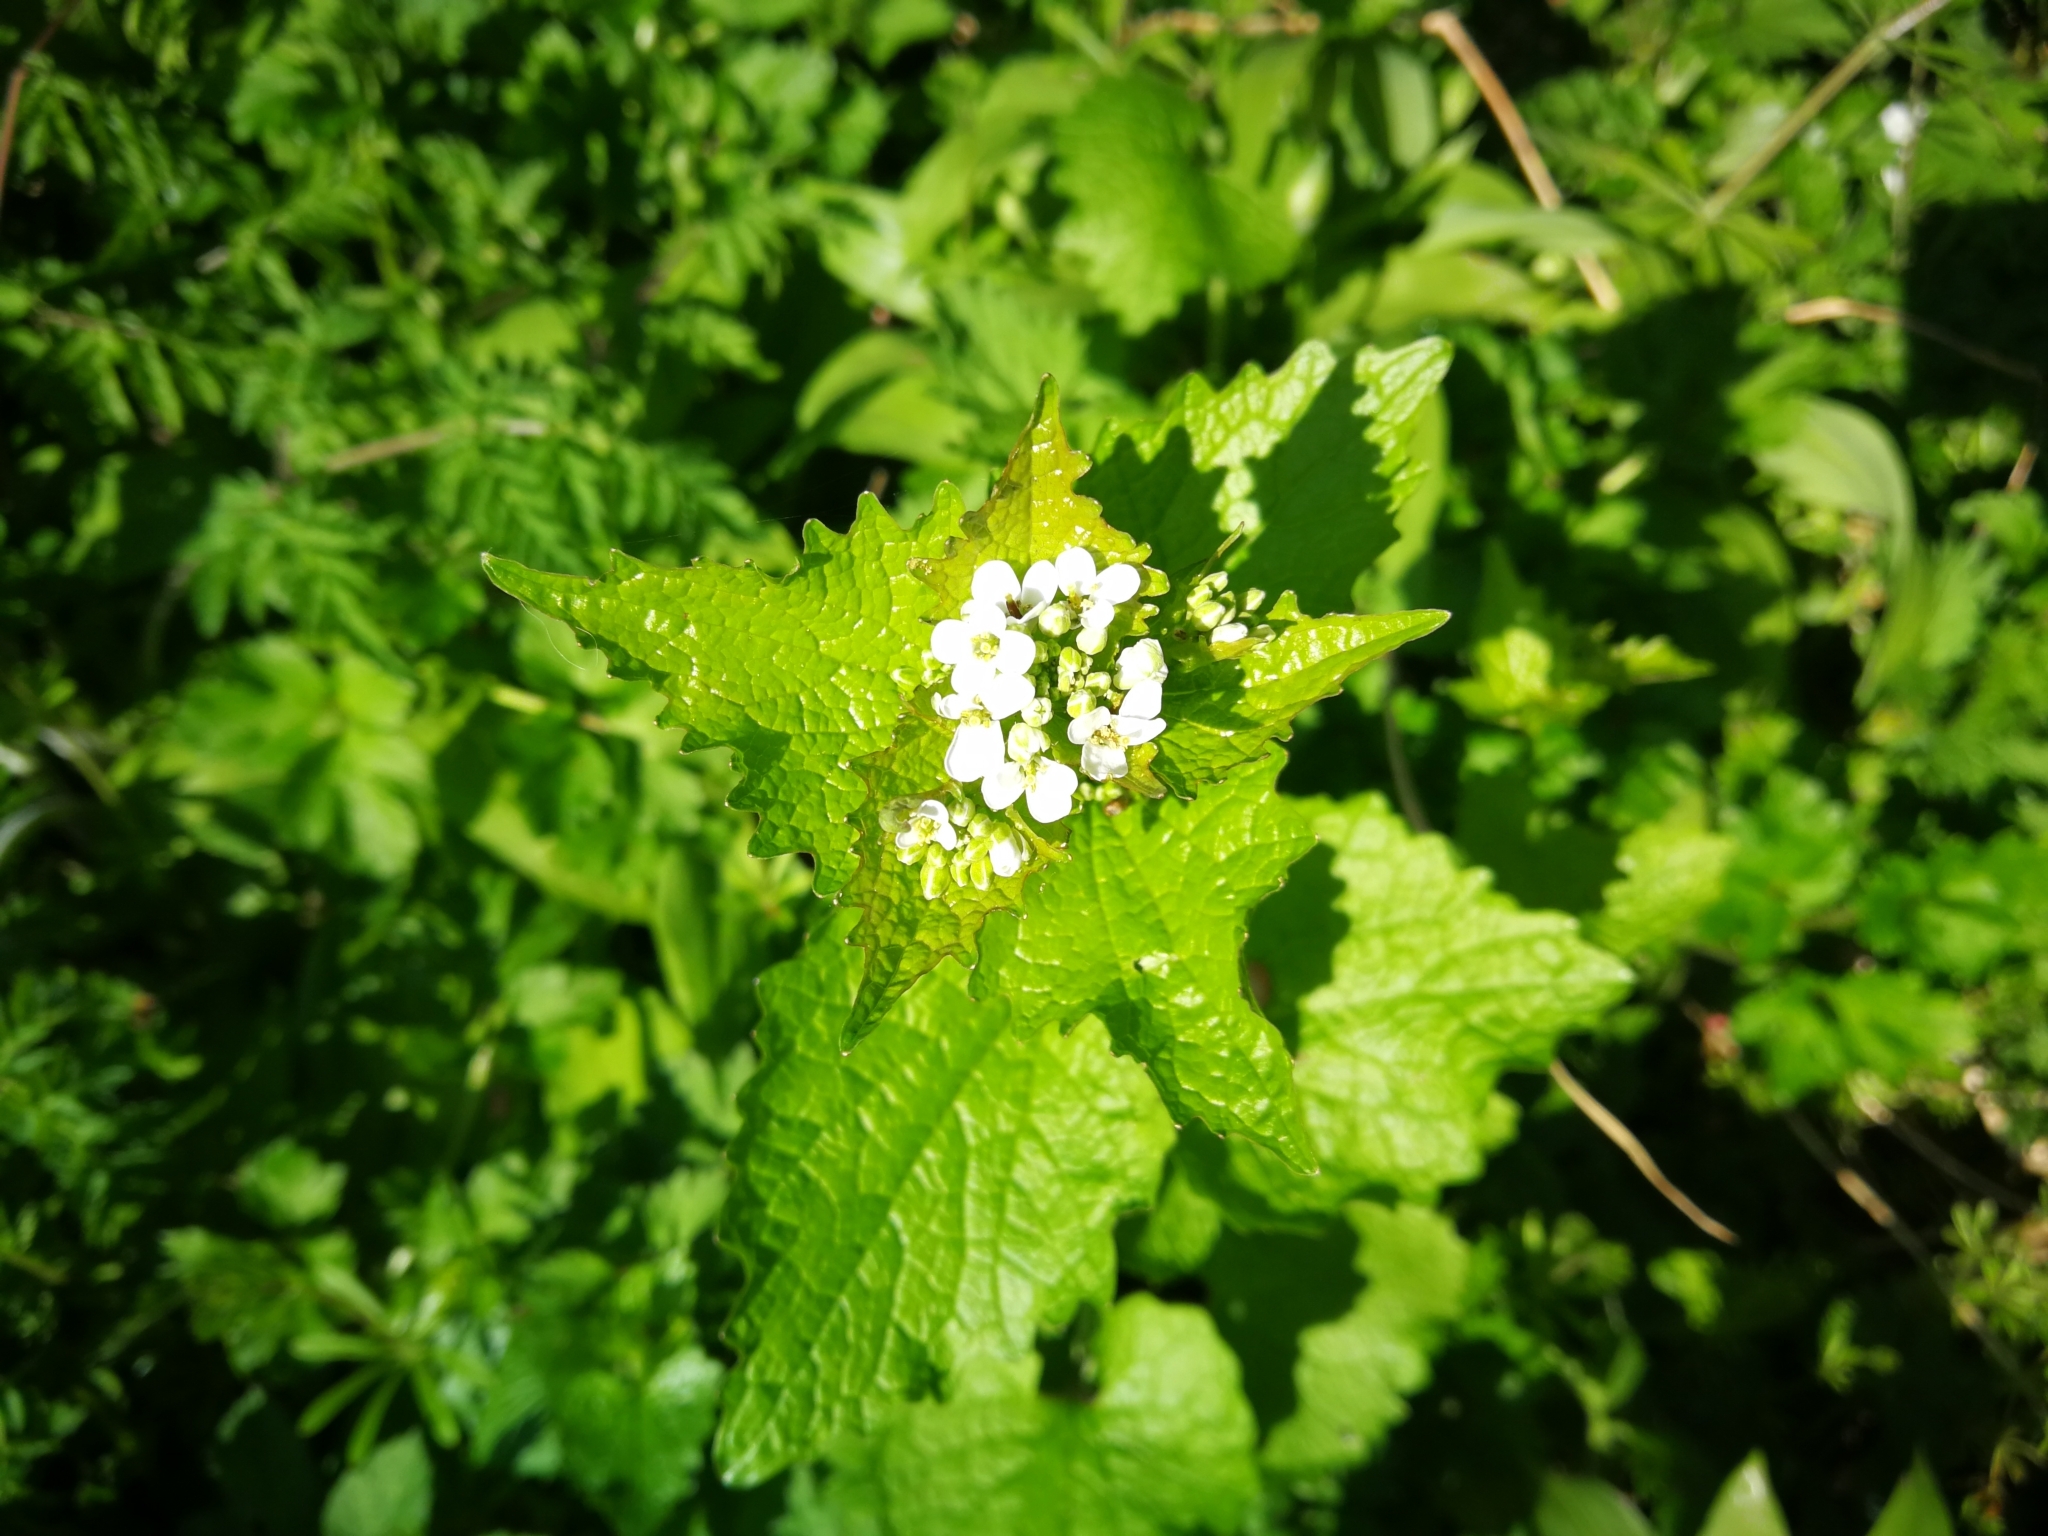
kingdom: Plantae
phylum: Tracheophyta
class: Magnoliopsida
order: Brassicales
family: Brassicaceae
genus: Alliaria
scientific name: Alliaria petiolata
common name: Garlic mustard
